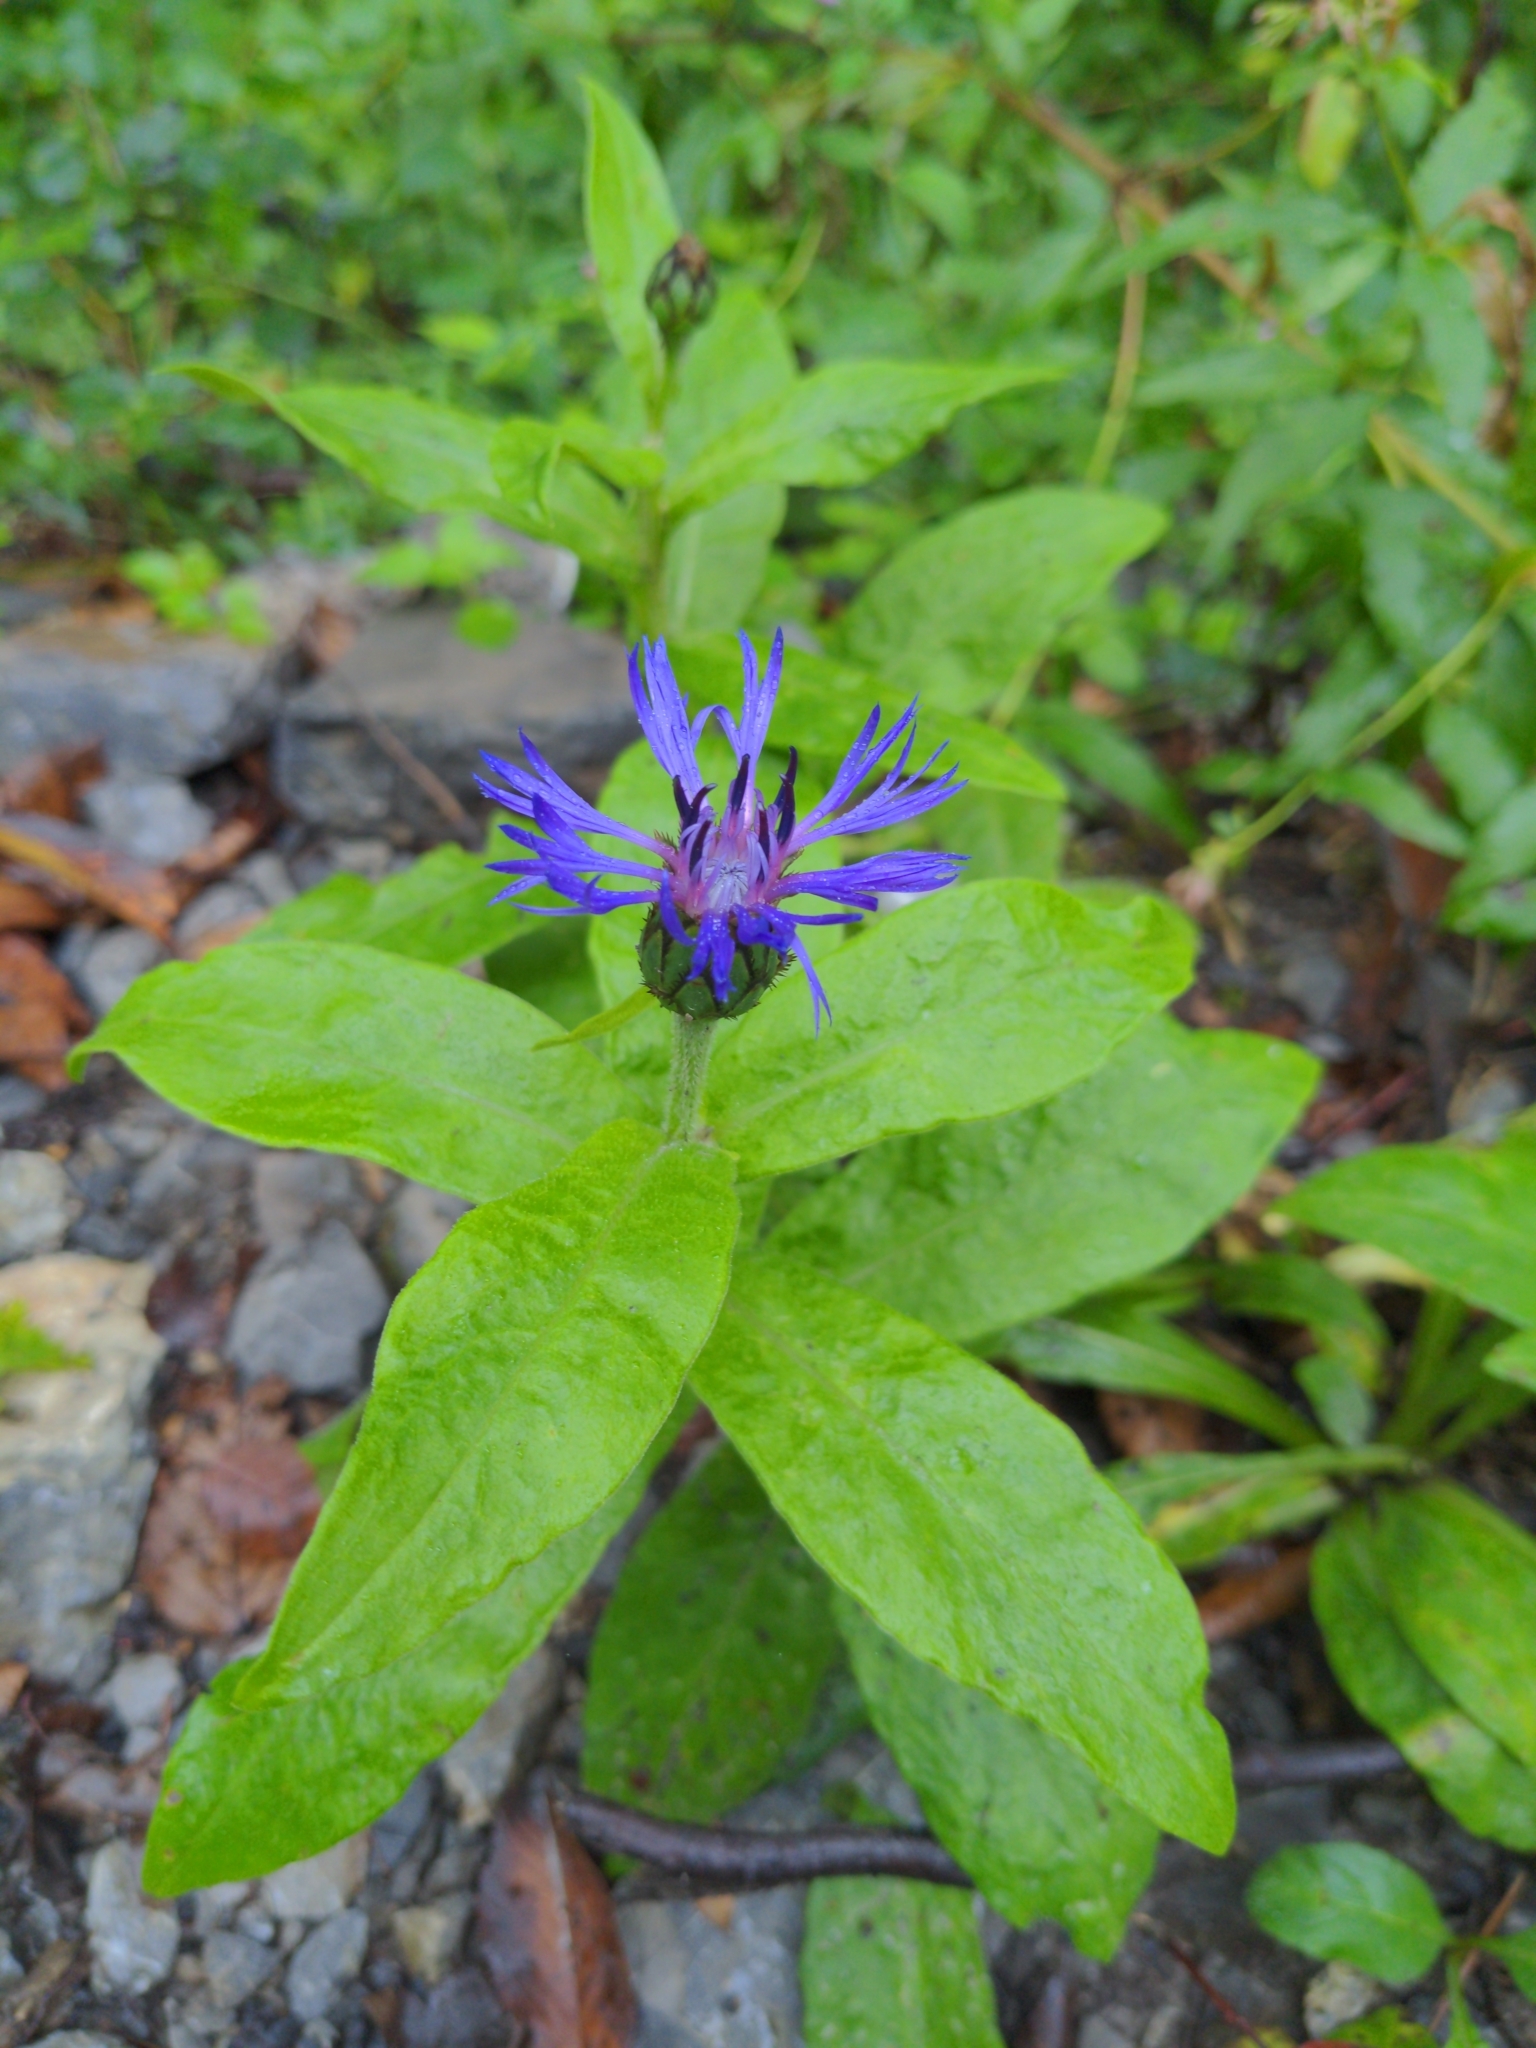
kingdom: Plantae
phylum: Tracheophyta
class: Magnoliopsida
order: Asterales
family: Asteraceae
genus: Centaurea
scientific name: Centaurea montana
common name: Perennial cornflower
